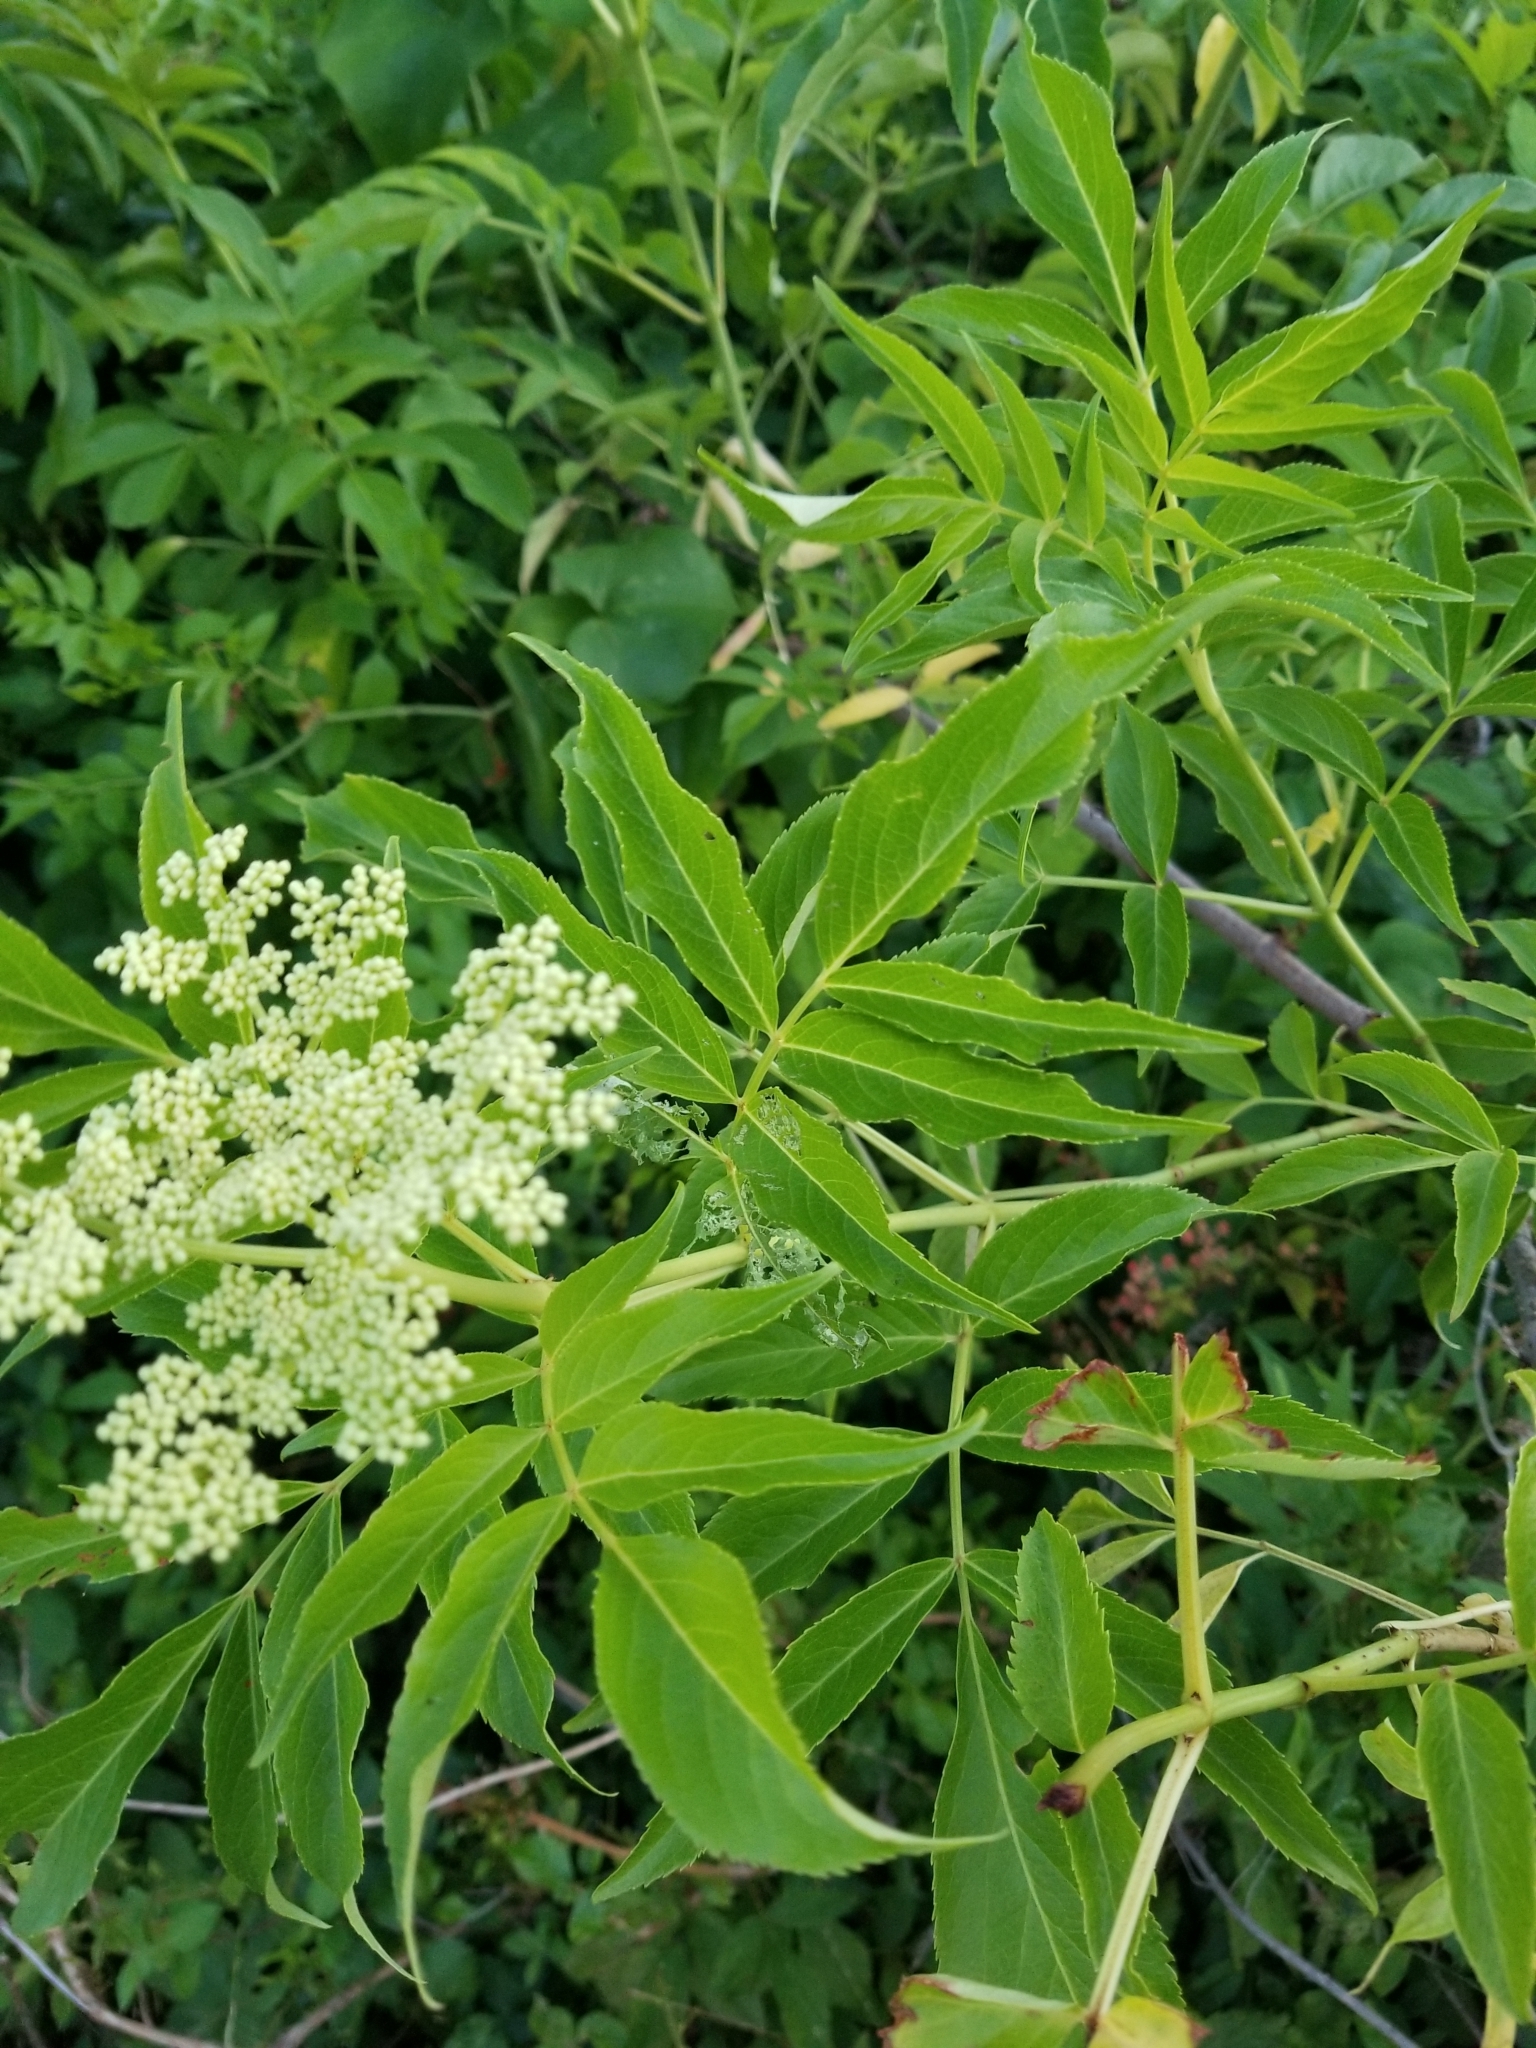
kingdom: Plantae
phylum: Tracheophyta
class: Magnoliopsida
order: Dipsacales
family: Viburnaceae
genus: Sambucus
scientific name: Sambucus canadensis
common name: American elder
